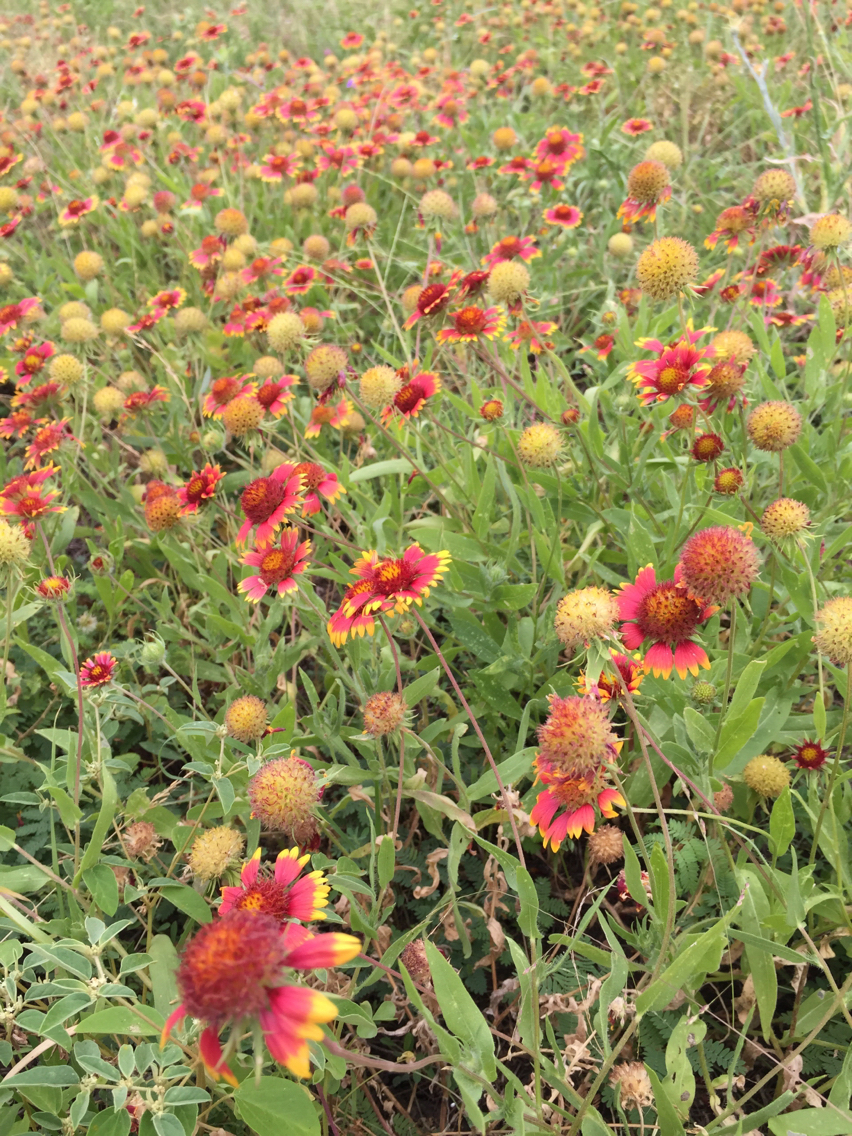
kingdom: Plantae
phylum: Tracheophyta
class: Magnoliopsida
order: Asterales
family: Asteraceae
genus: Gaillardia
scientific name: Gaillardia pulchella
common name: Firewheel
